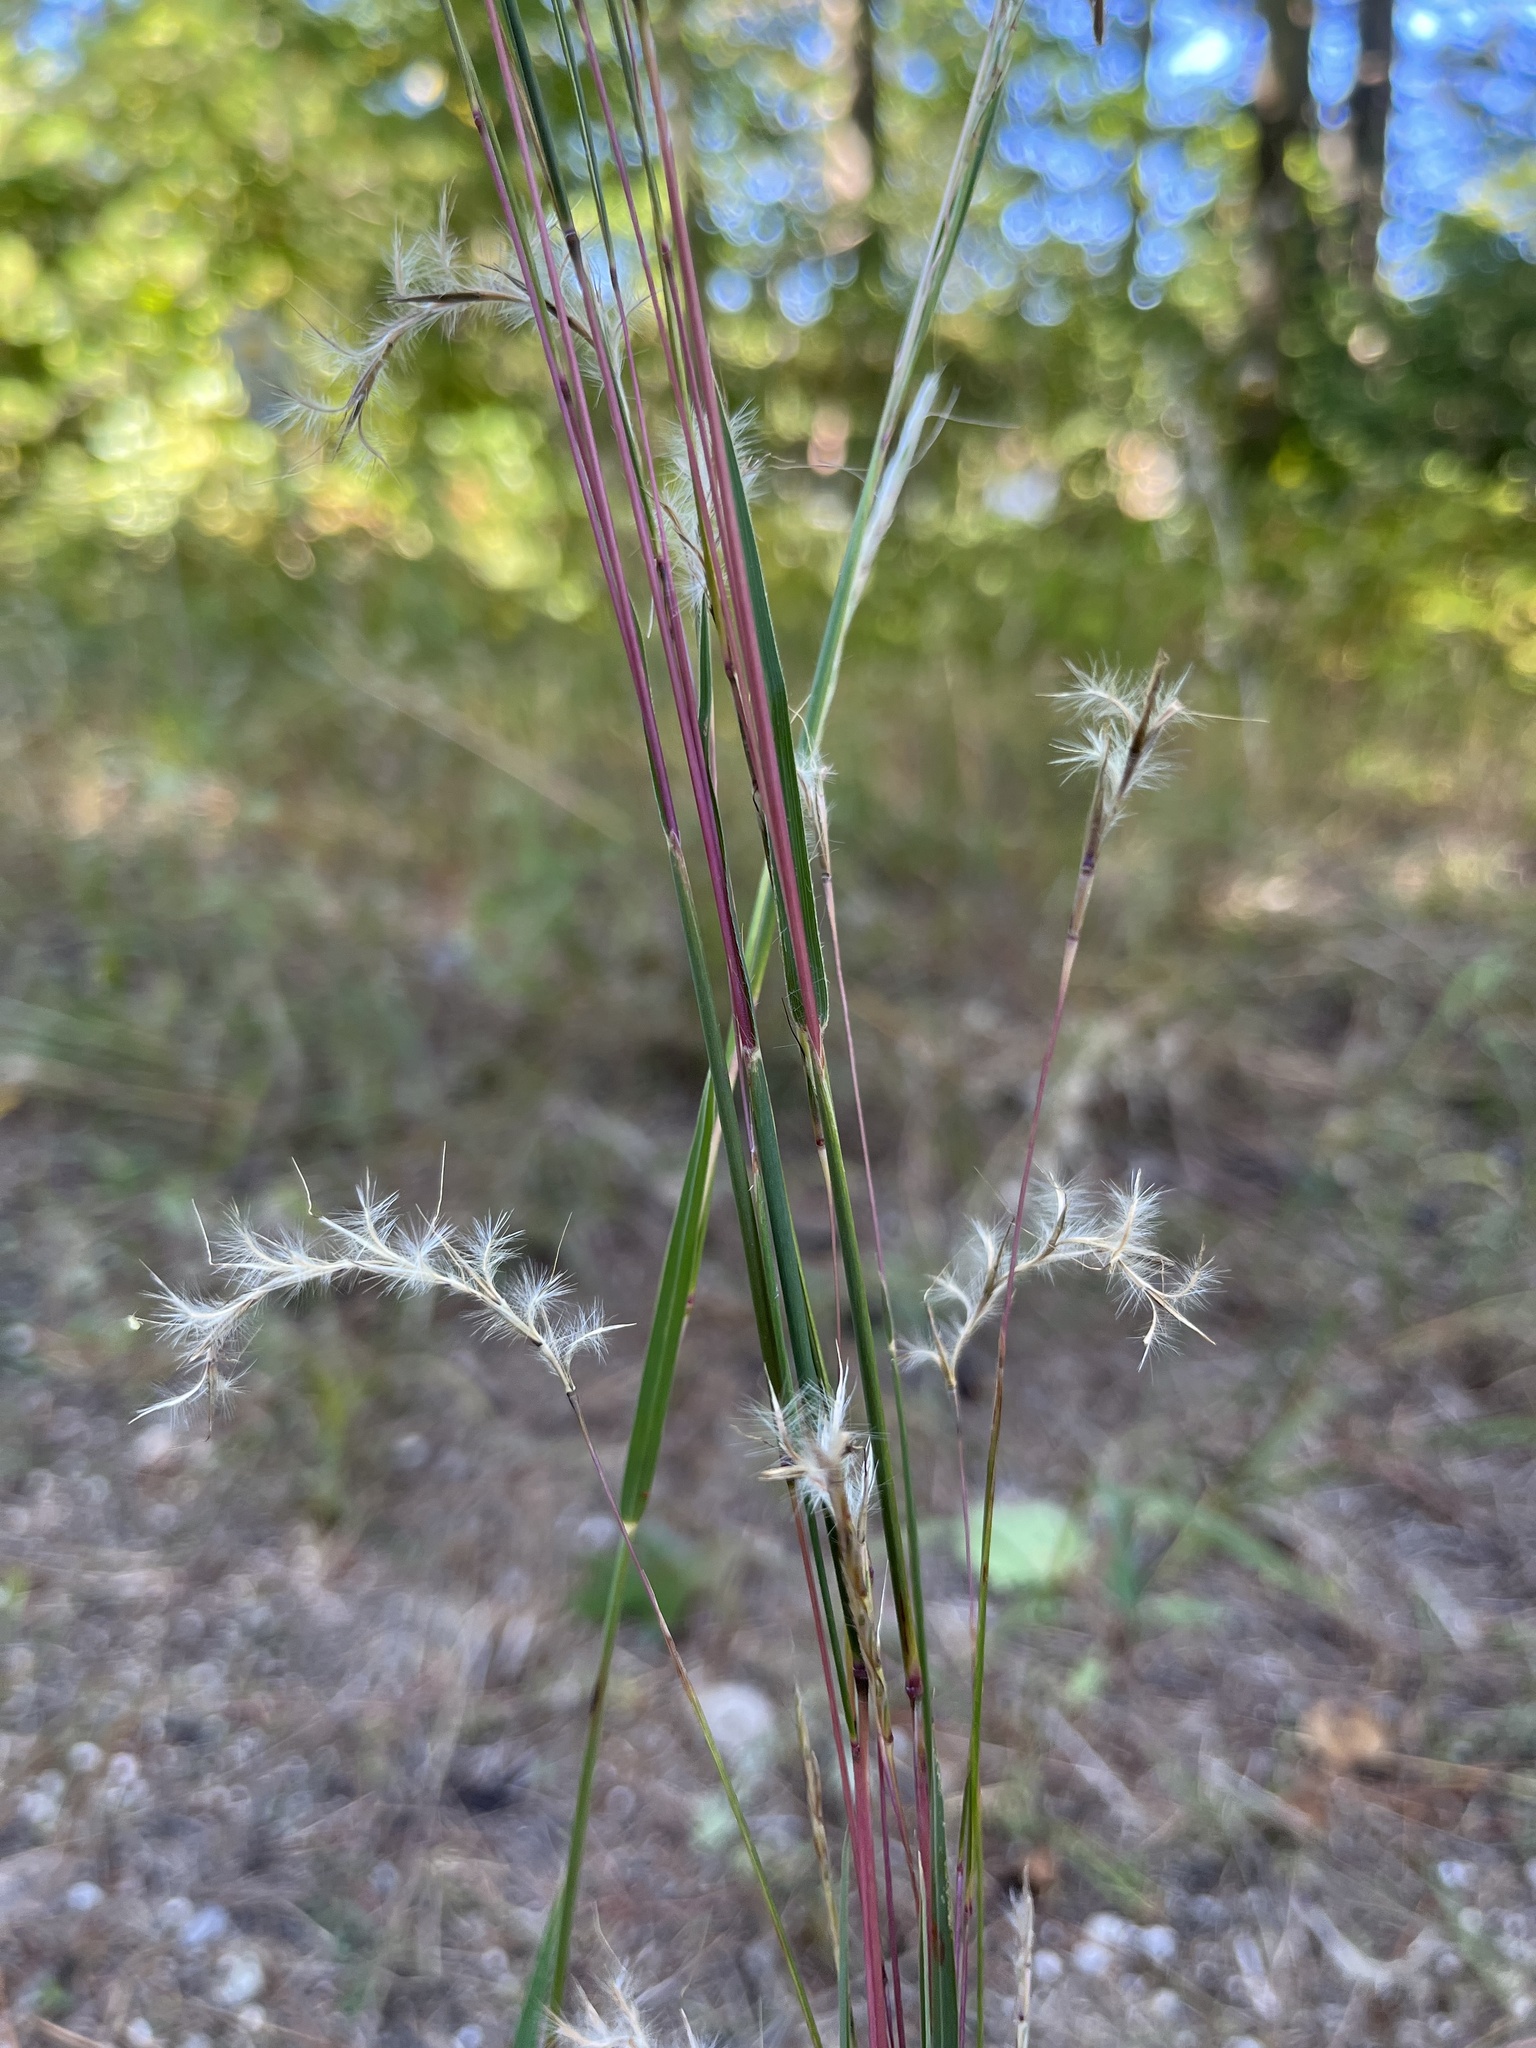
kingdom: Plantae
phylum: Tracheophyta
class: Liliopsida
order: Poales
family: Poaceae
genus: Schizachyrium
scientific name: Schizachyrium scoparium
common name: Little bluestem
